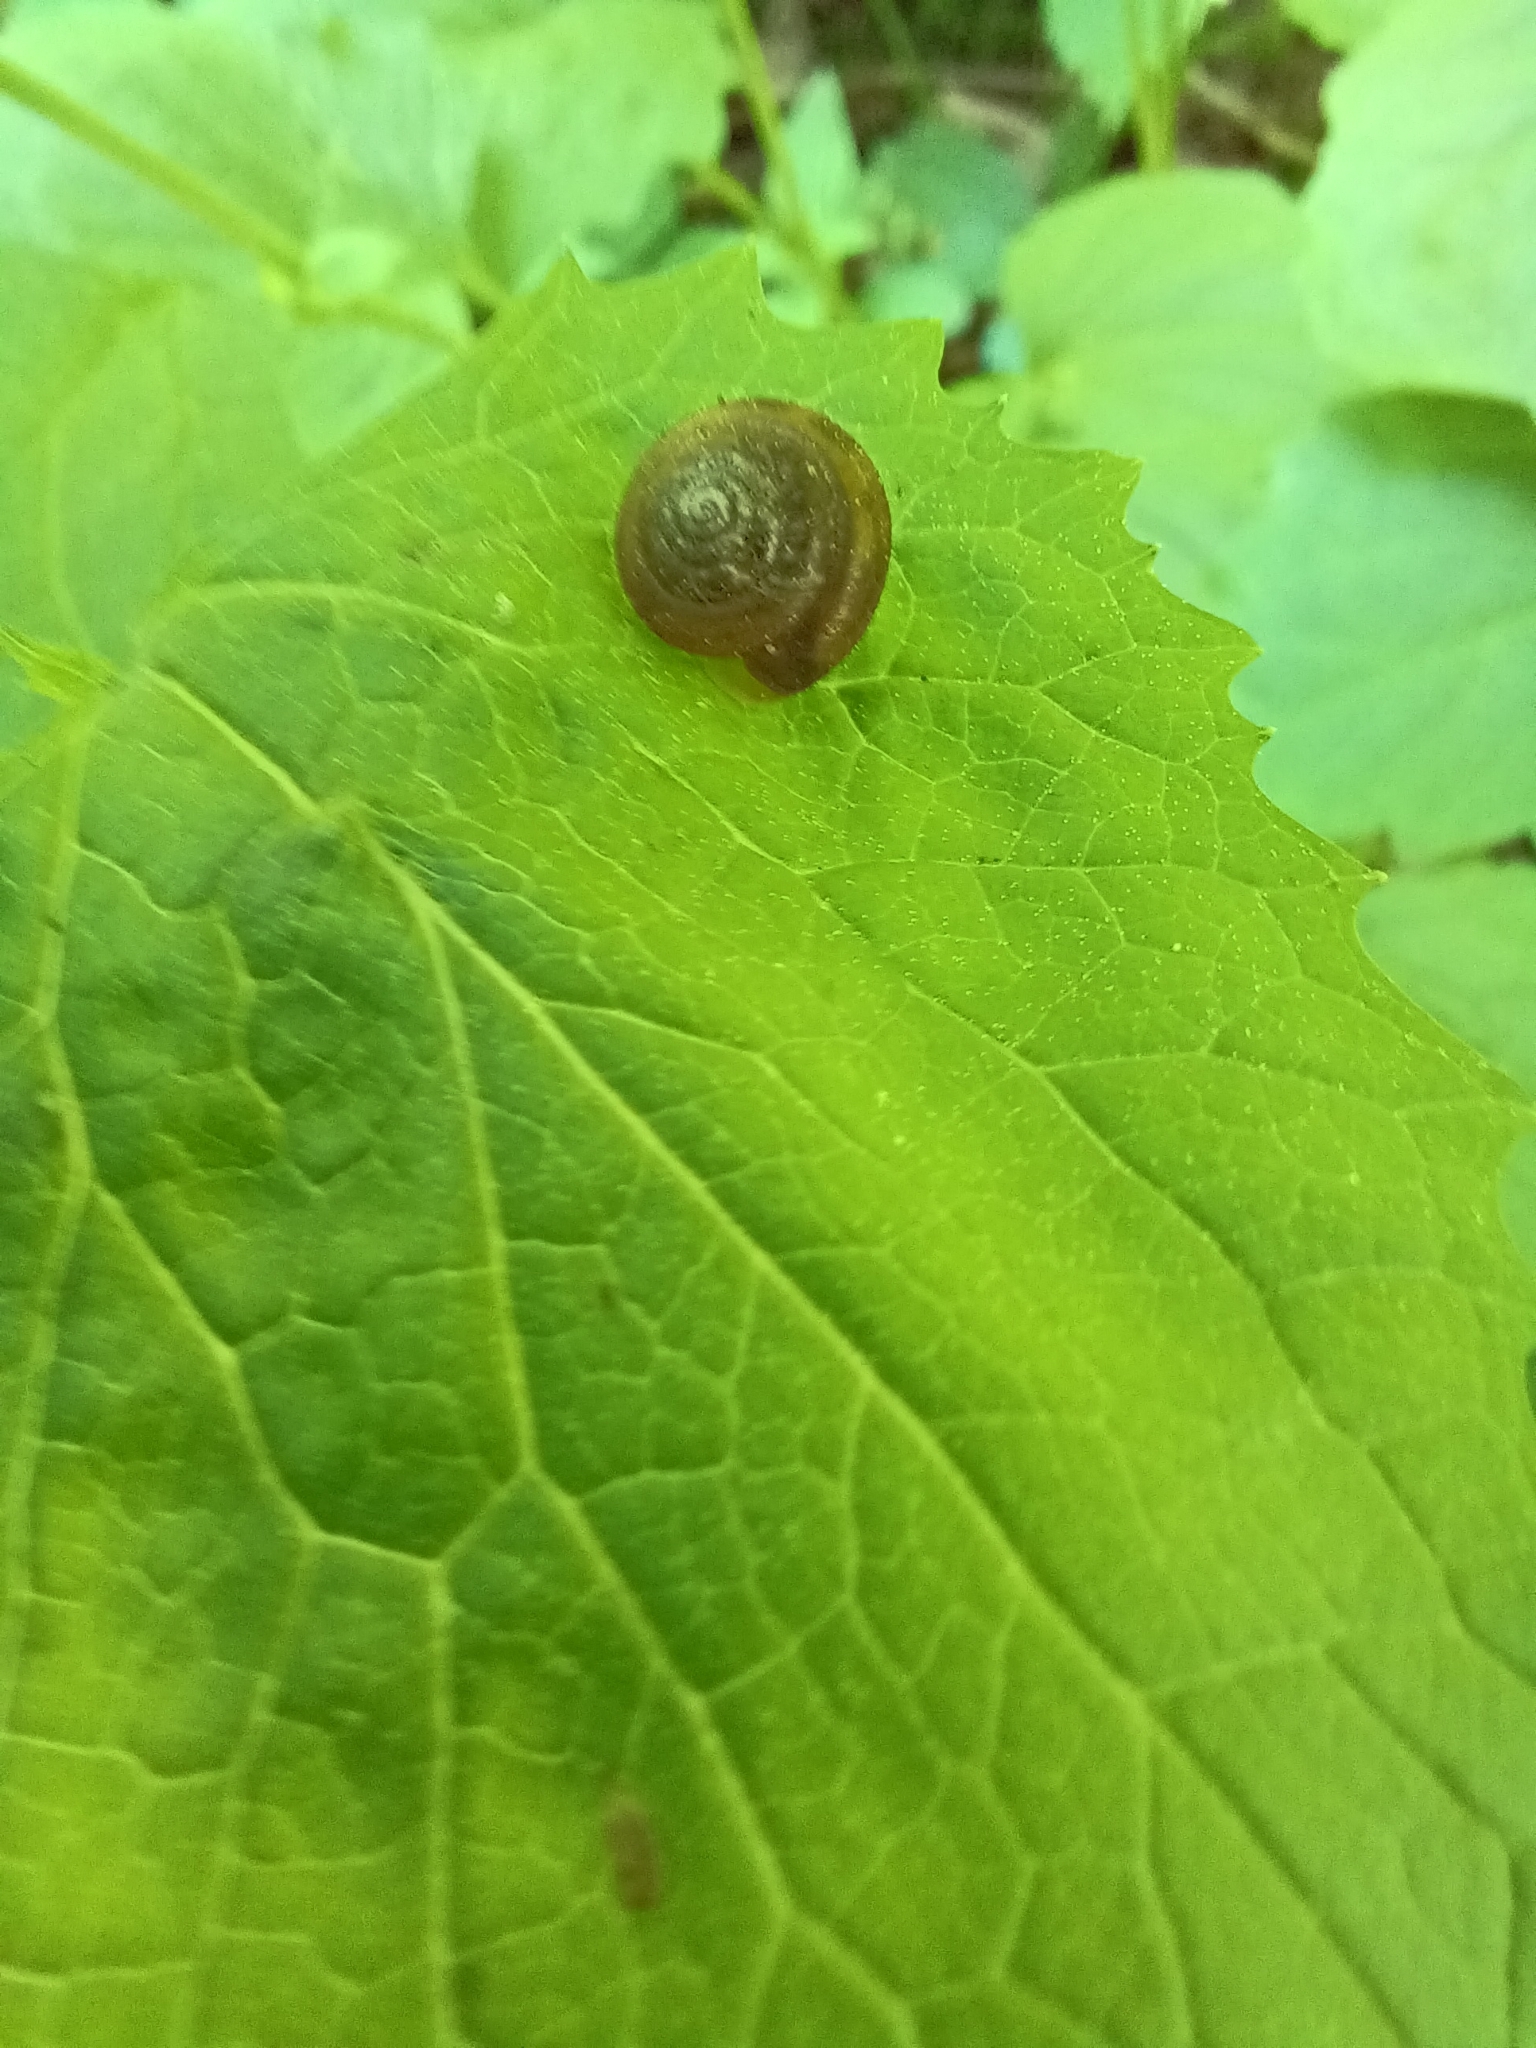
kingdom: Animalia
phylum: Mollusca
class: Gastropoda
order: Stylommatophora
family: Hygromiidae
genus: Trochulus
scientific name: Trochulus hispidus
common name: Hairy snail
